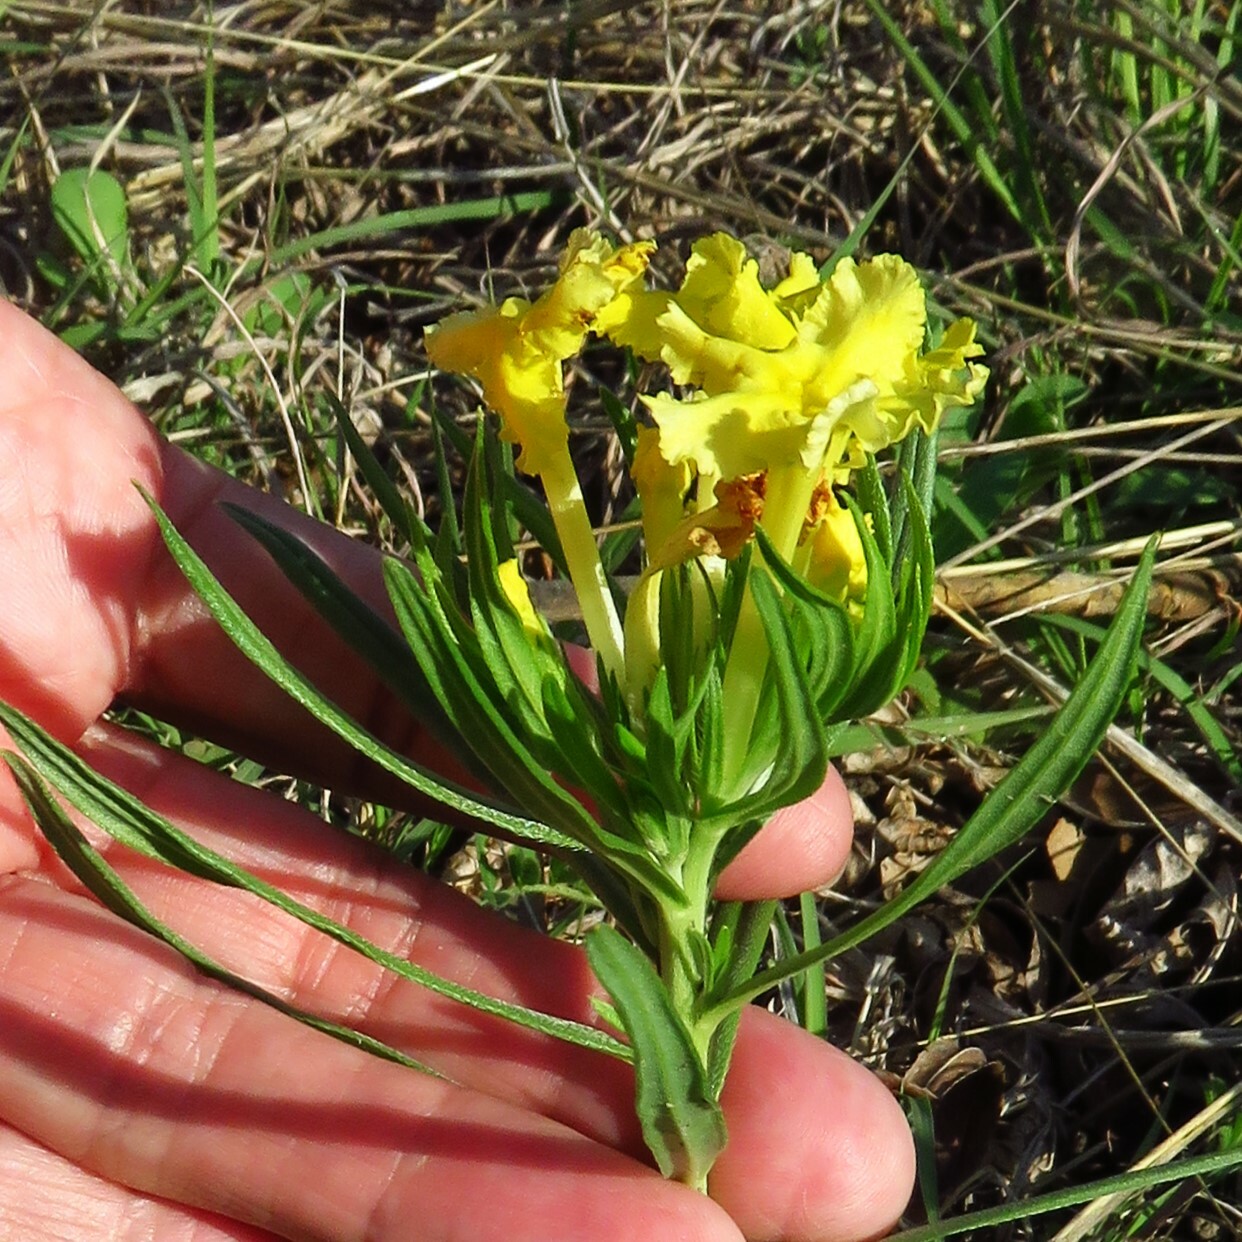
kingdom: Plantae
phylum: Tracheophyta
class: Magnoliopsida
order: Boraginales
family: Boraginaceae
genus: Lithospermum
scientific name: Lithospermum incisum
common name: Fringed gromwell
